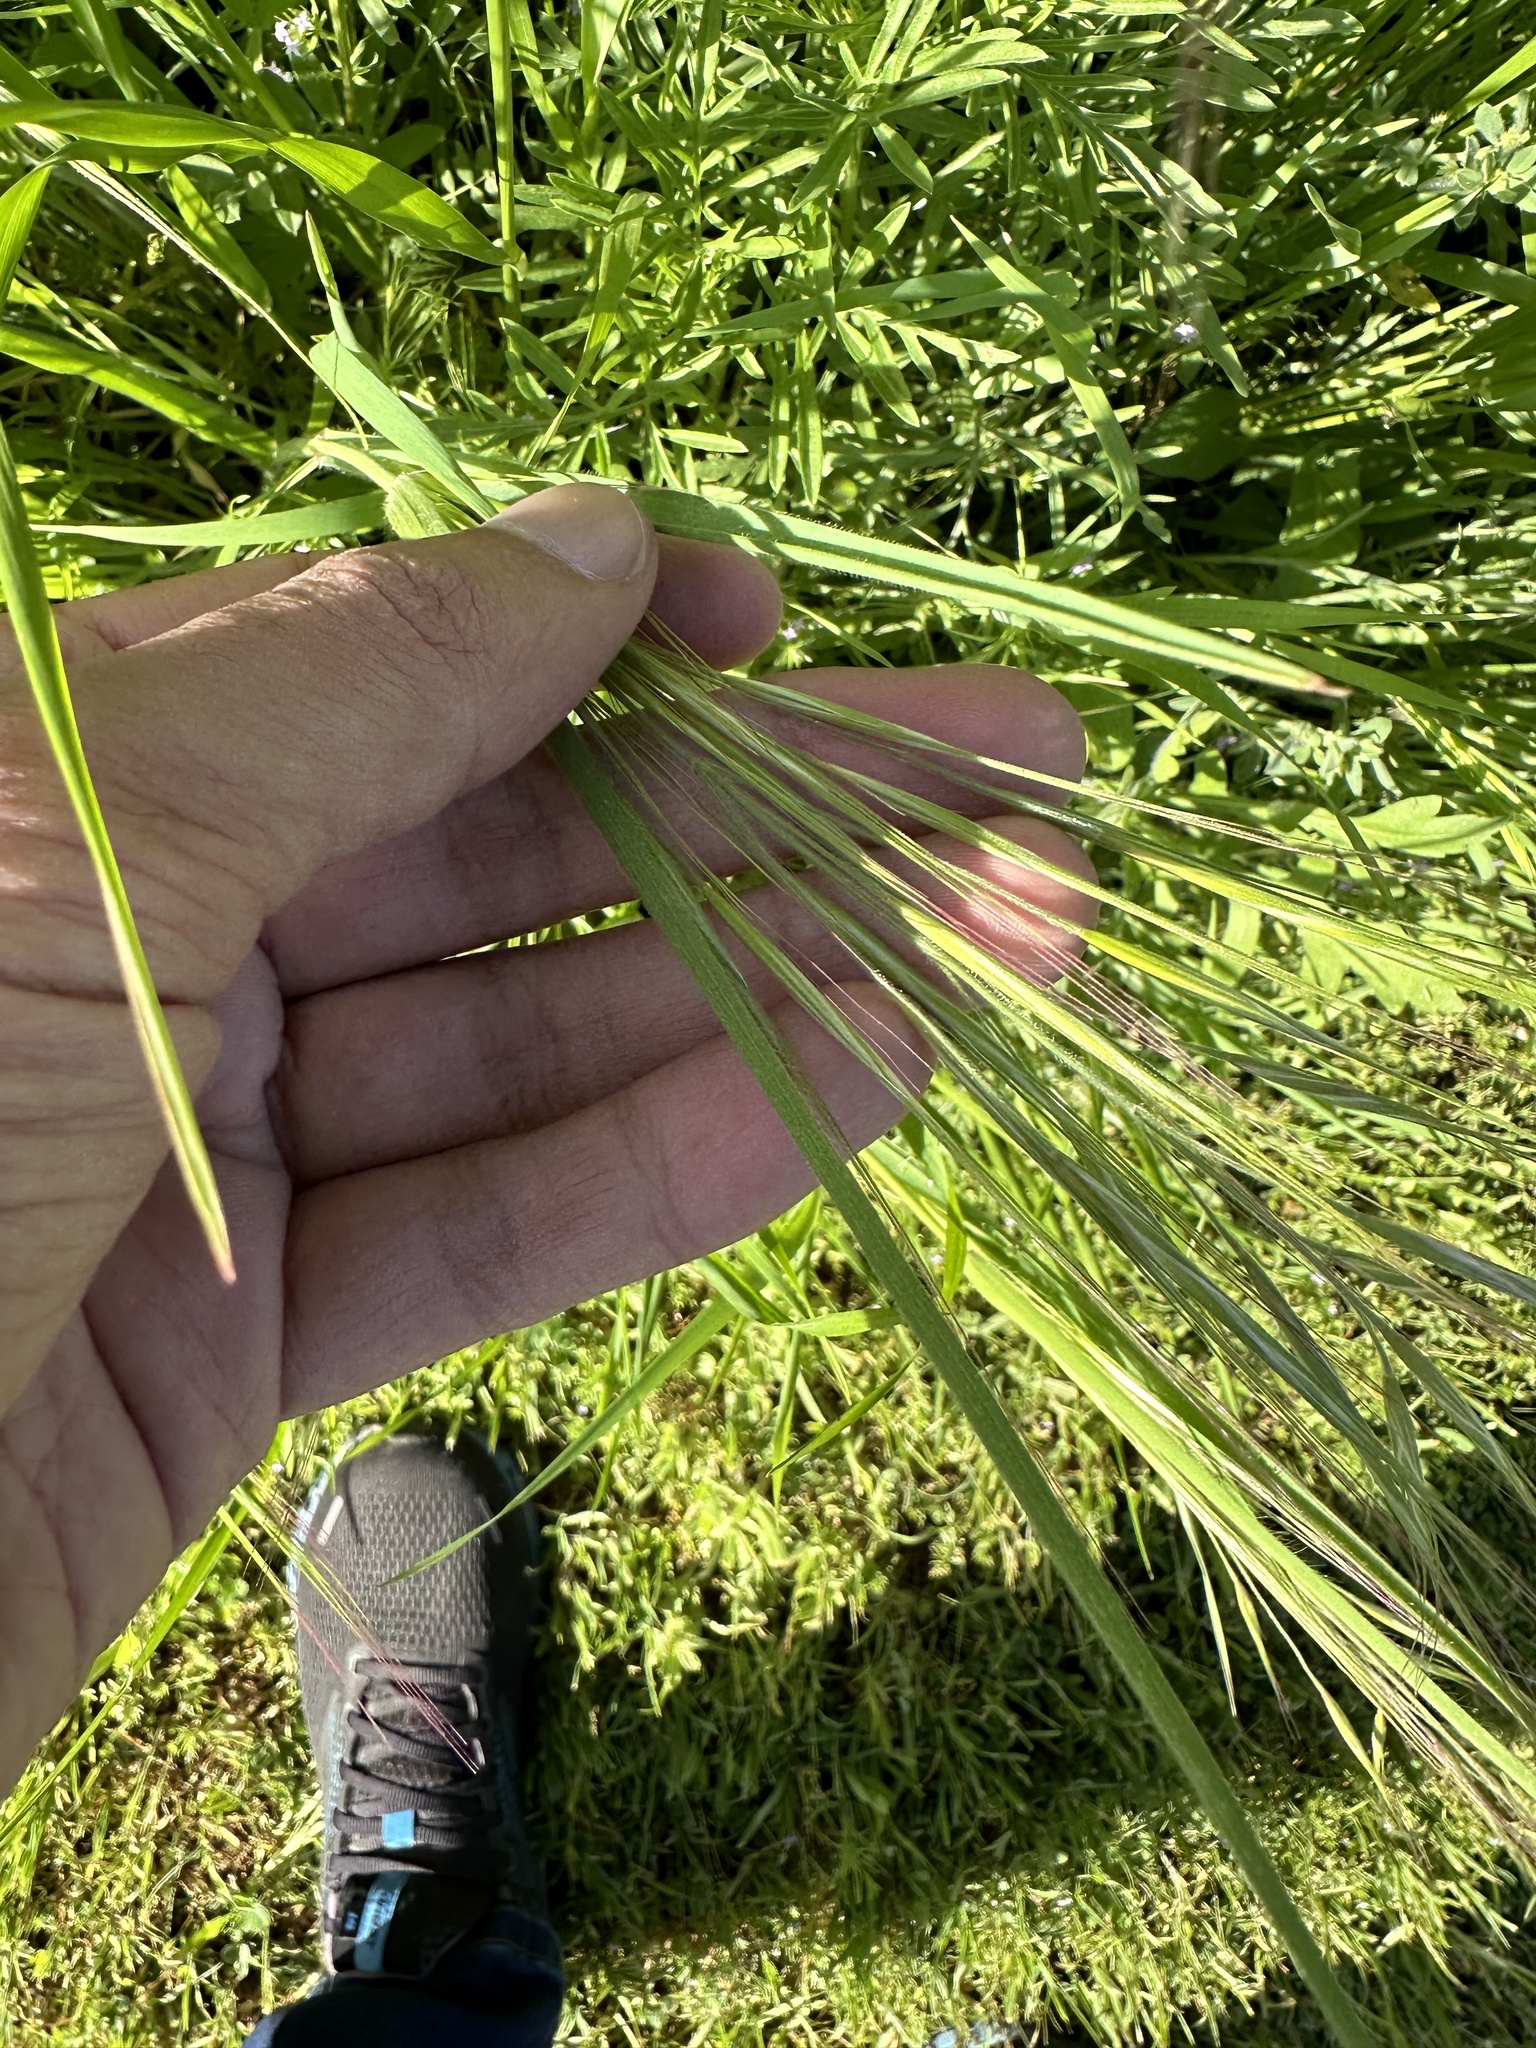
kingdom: Plantae
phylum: Tracheophyta
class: Liliopsida
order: Poales
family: Poaceae
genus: Nassella
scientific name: Nassella leucotricha
